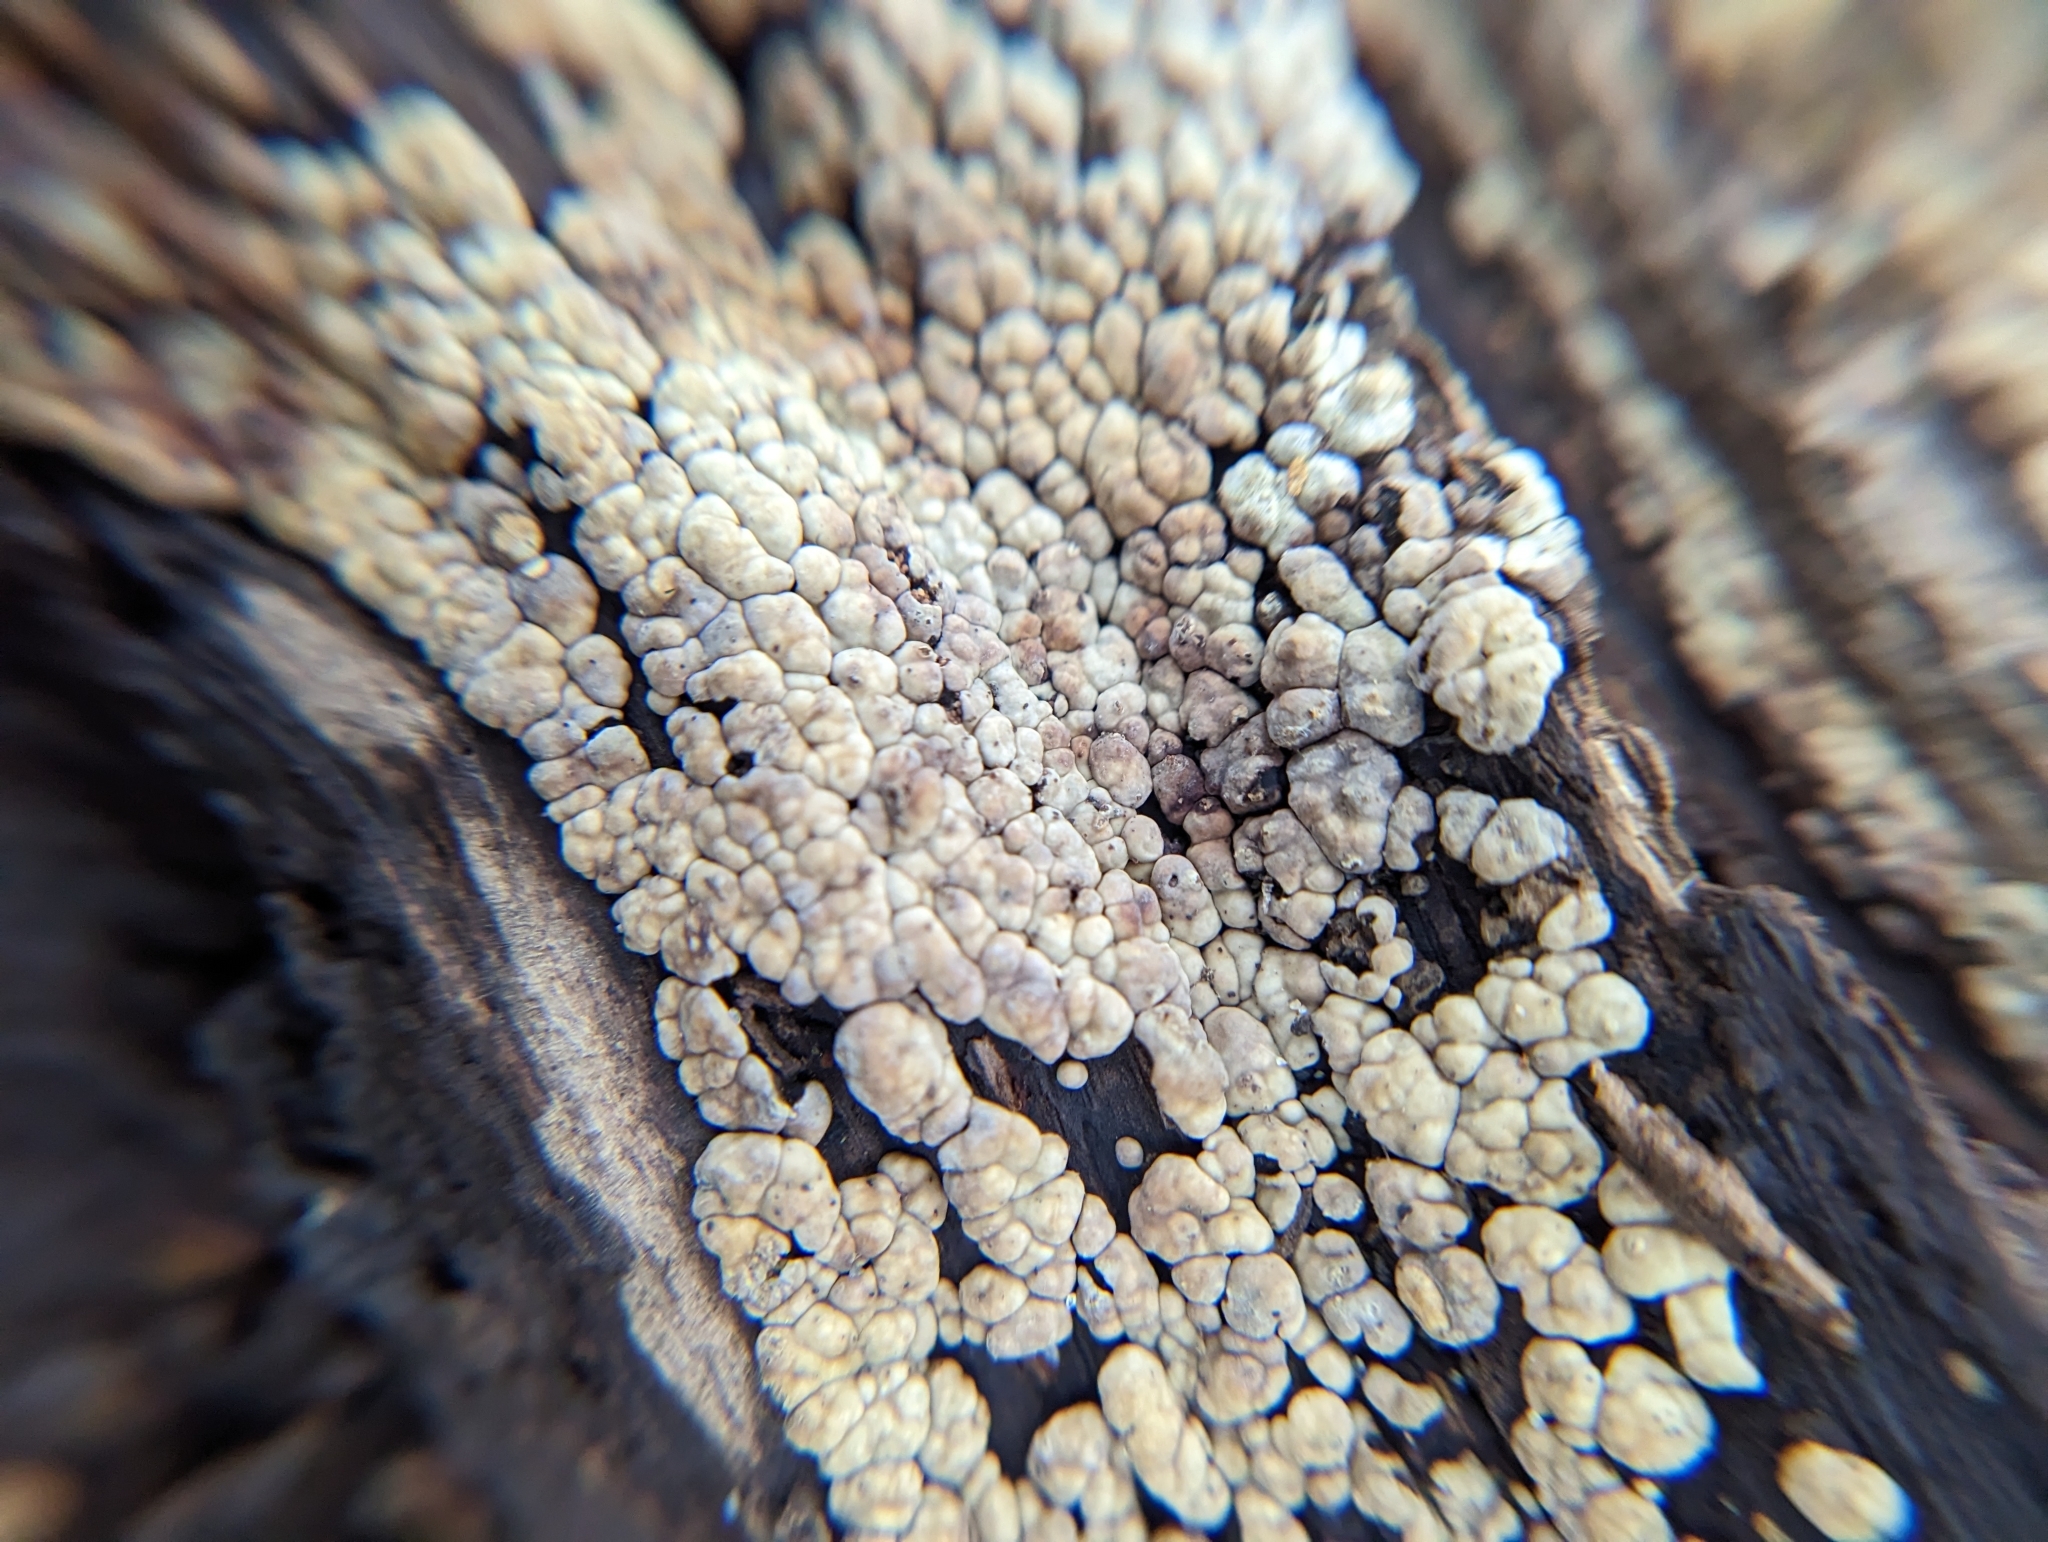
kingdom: Fungi
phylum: Basidiomycota
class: Agaricomycetes
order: Russulales
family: Stereaceae
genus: Xylobolus
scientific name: Xylobolus frustulatus
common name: Ceramic parchment
